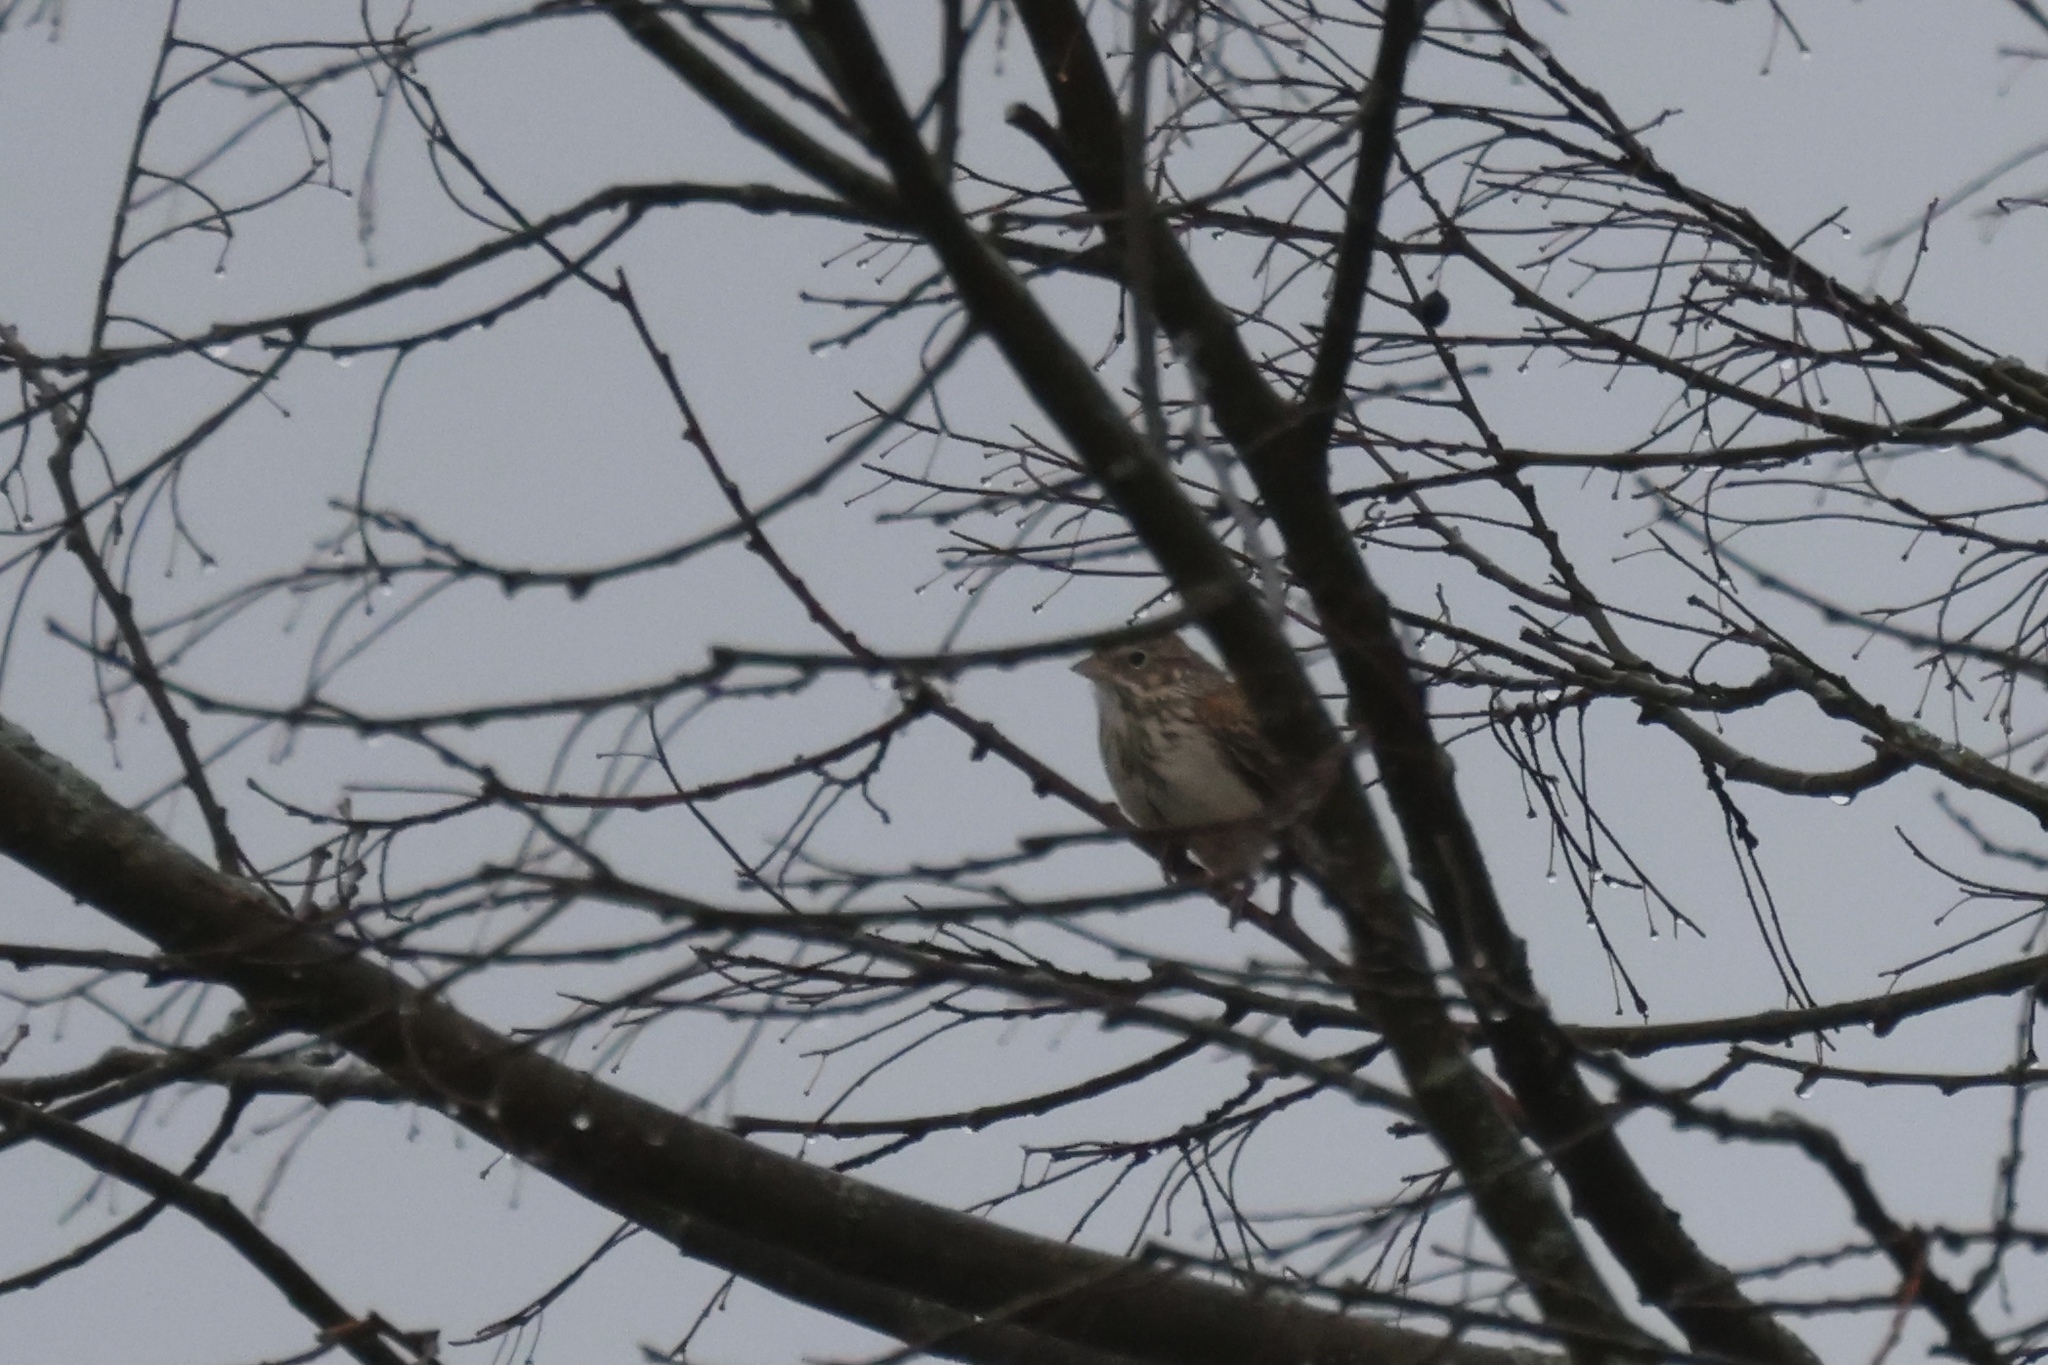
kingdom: Animalia
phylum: Chordata
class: Aves
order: Passeriformes
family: Passerellidae
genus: Pooecetes
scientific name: Pooecetes gramineus
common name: Vesper sparrow
